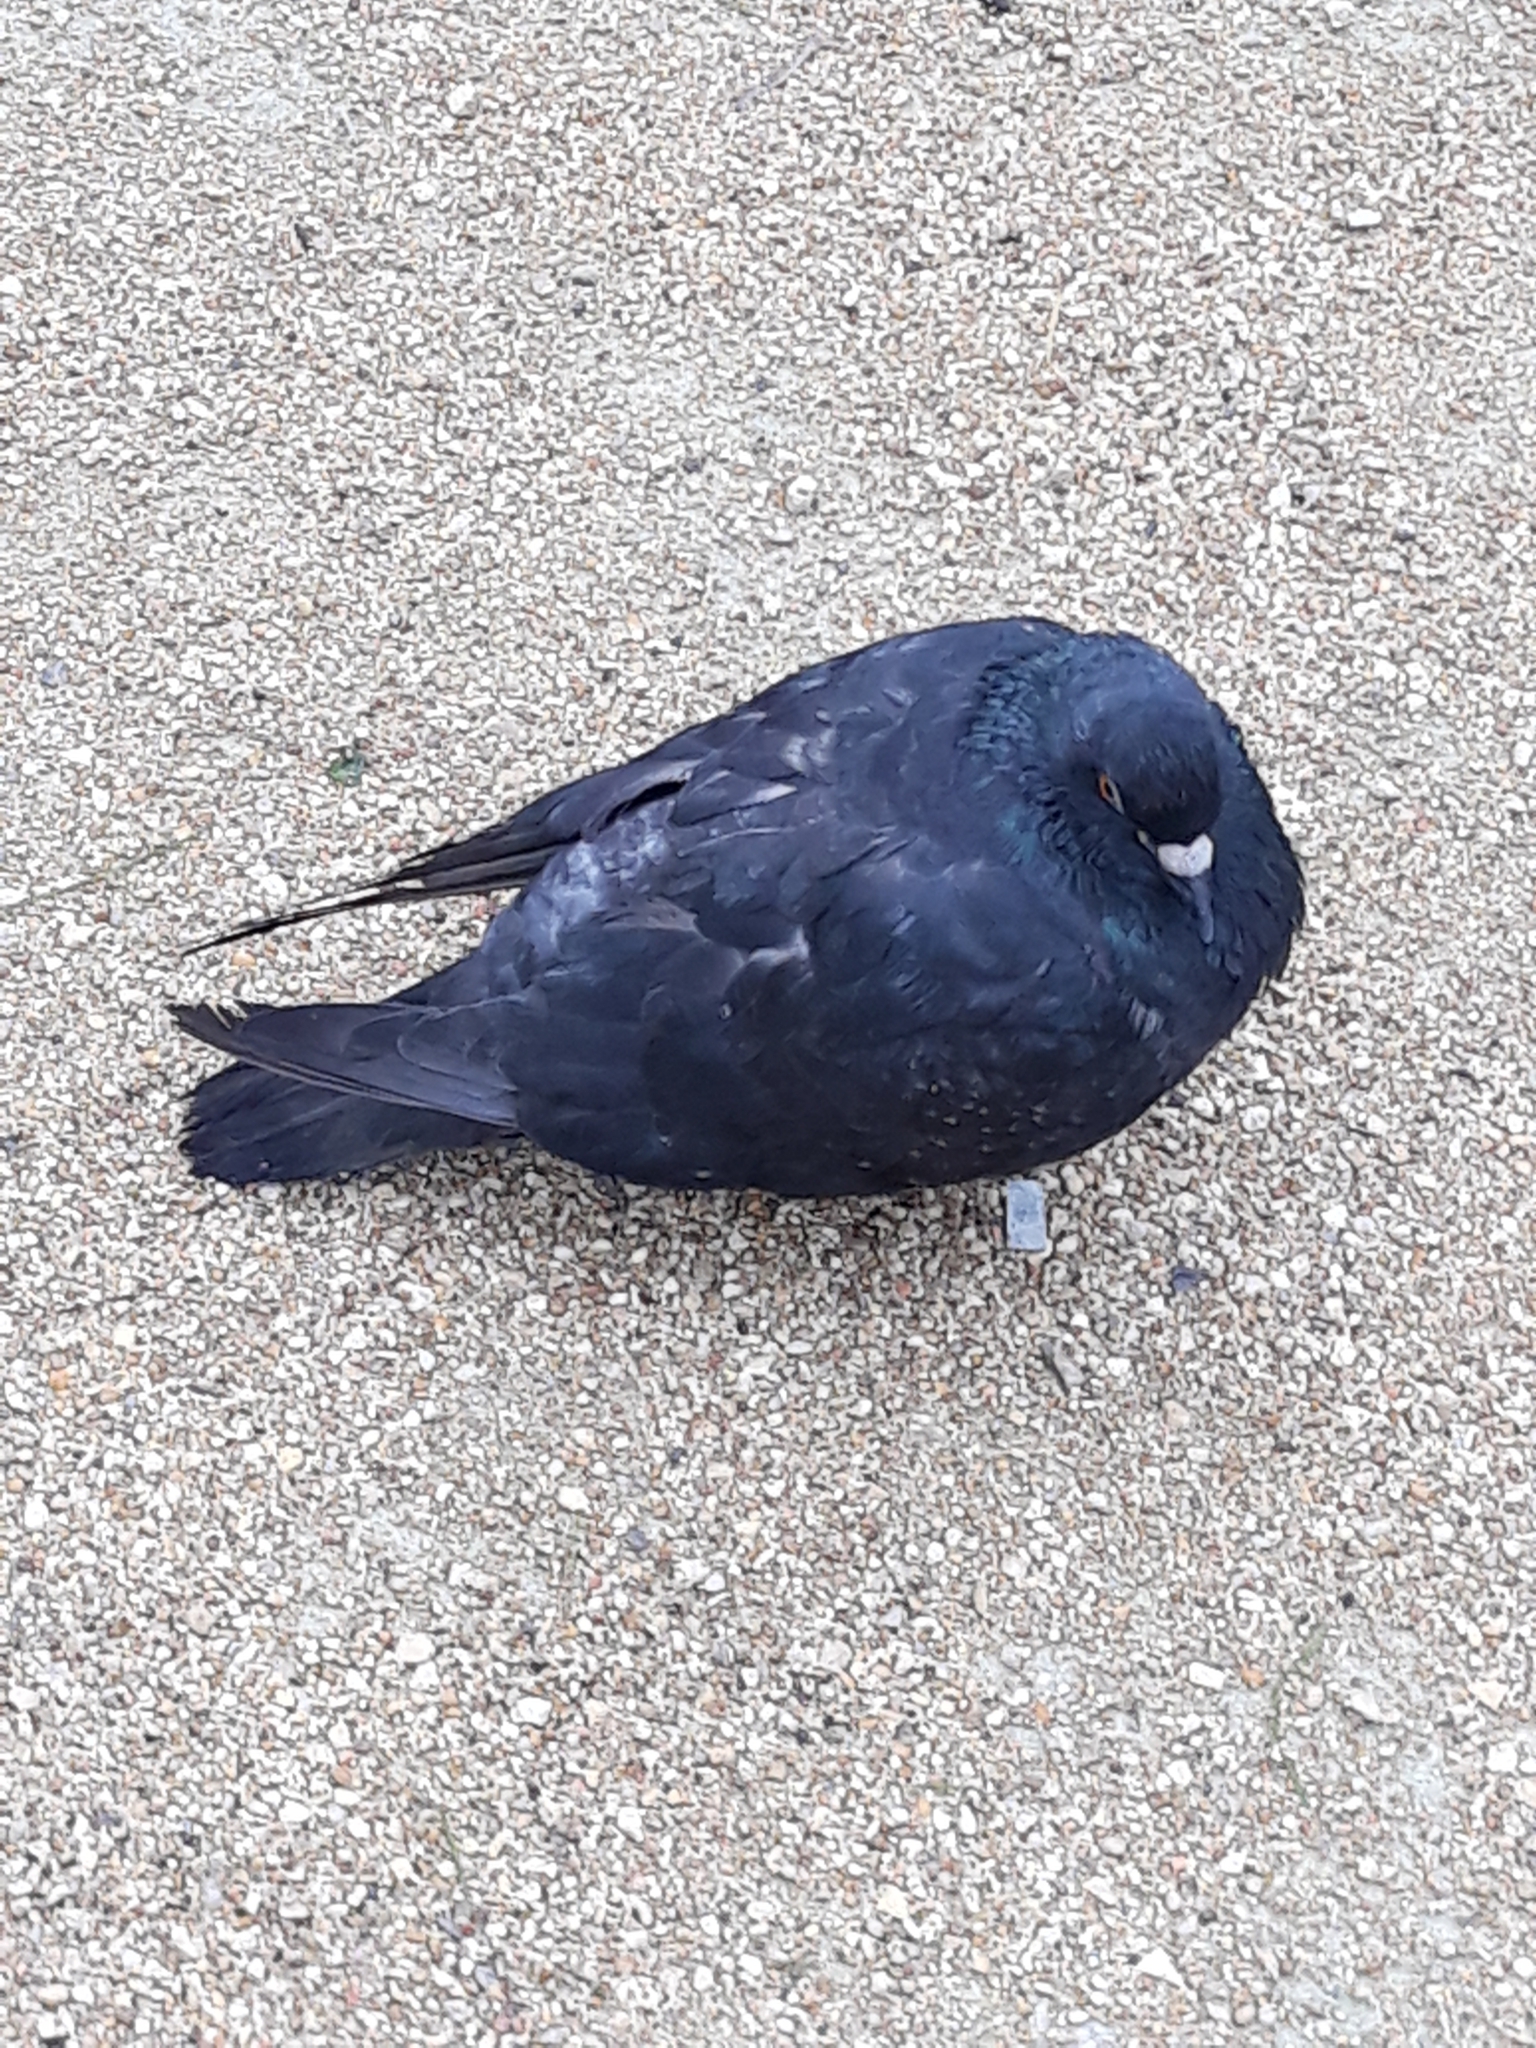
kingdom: Animalia
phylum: Chordata
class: Aves
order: Columbiformes
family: Columbidae
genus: Columba
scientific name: Columba livia
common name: Rock pigeon
